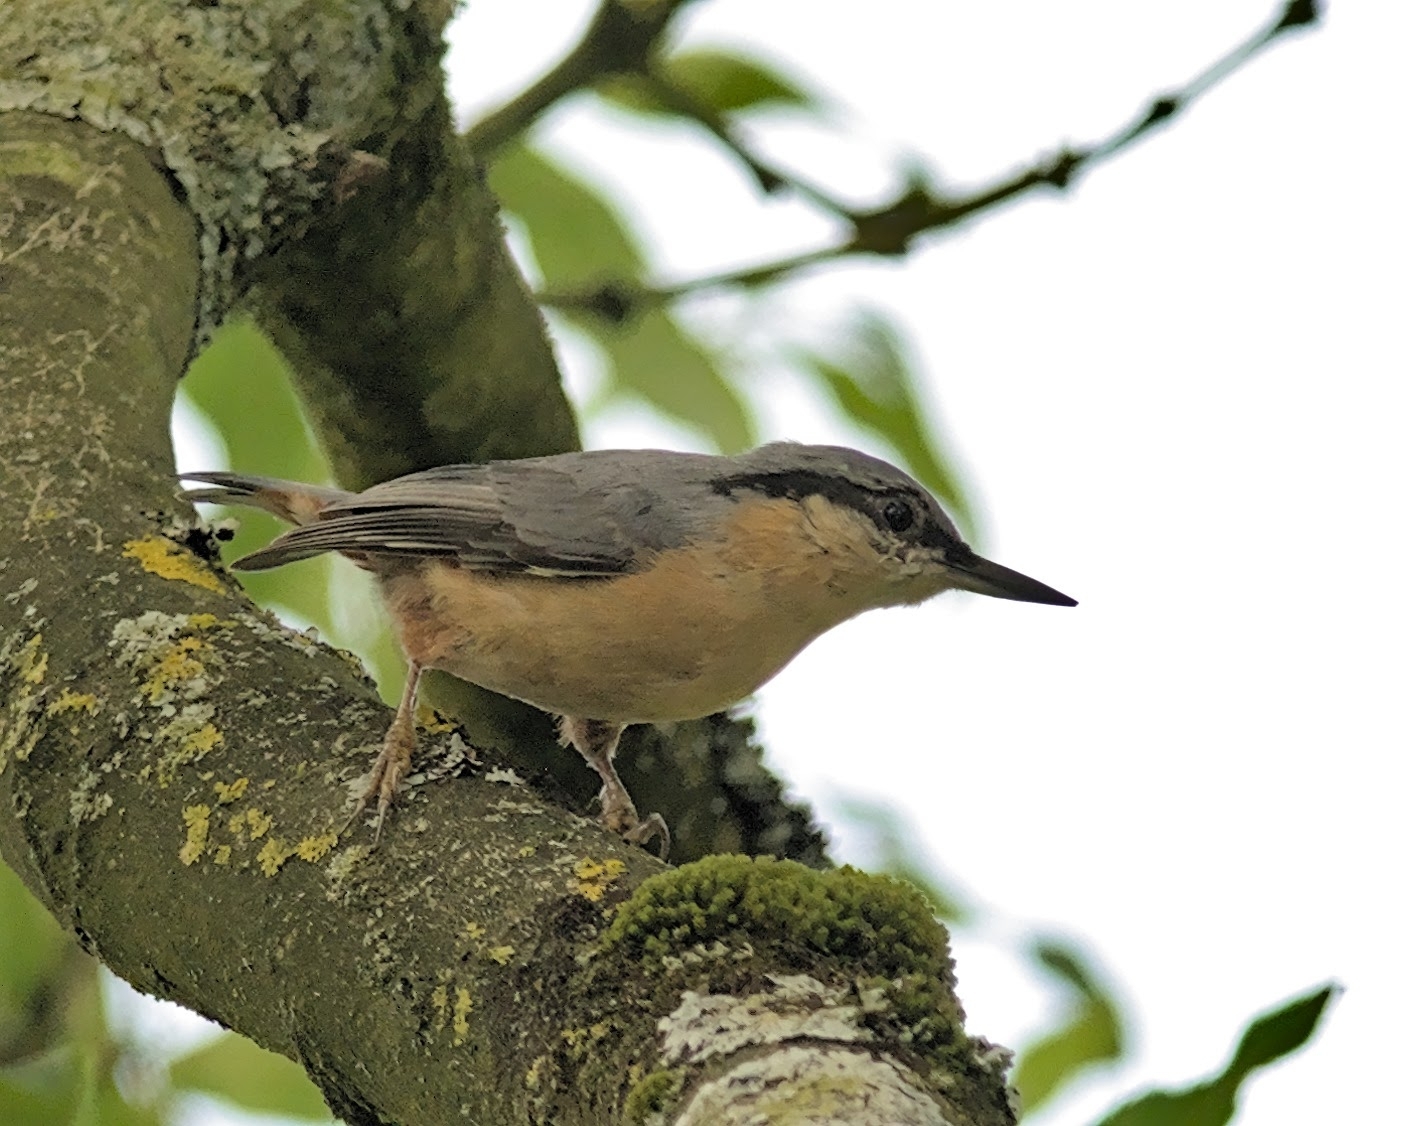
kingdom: Animalia
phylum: Chordata
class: Aves
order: Passeriformes
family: Sittidae
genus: Sitta
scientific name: Sitta europaea
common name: Eurasian nuthatch
